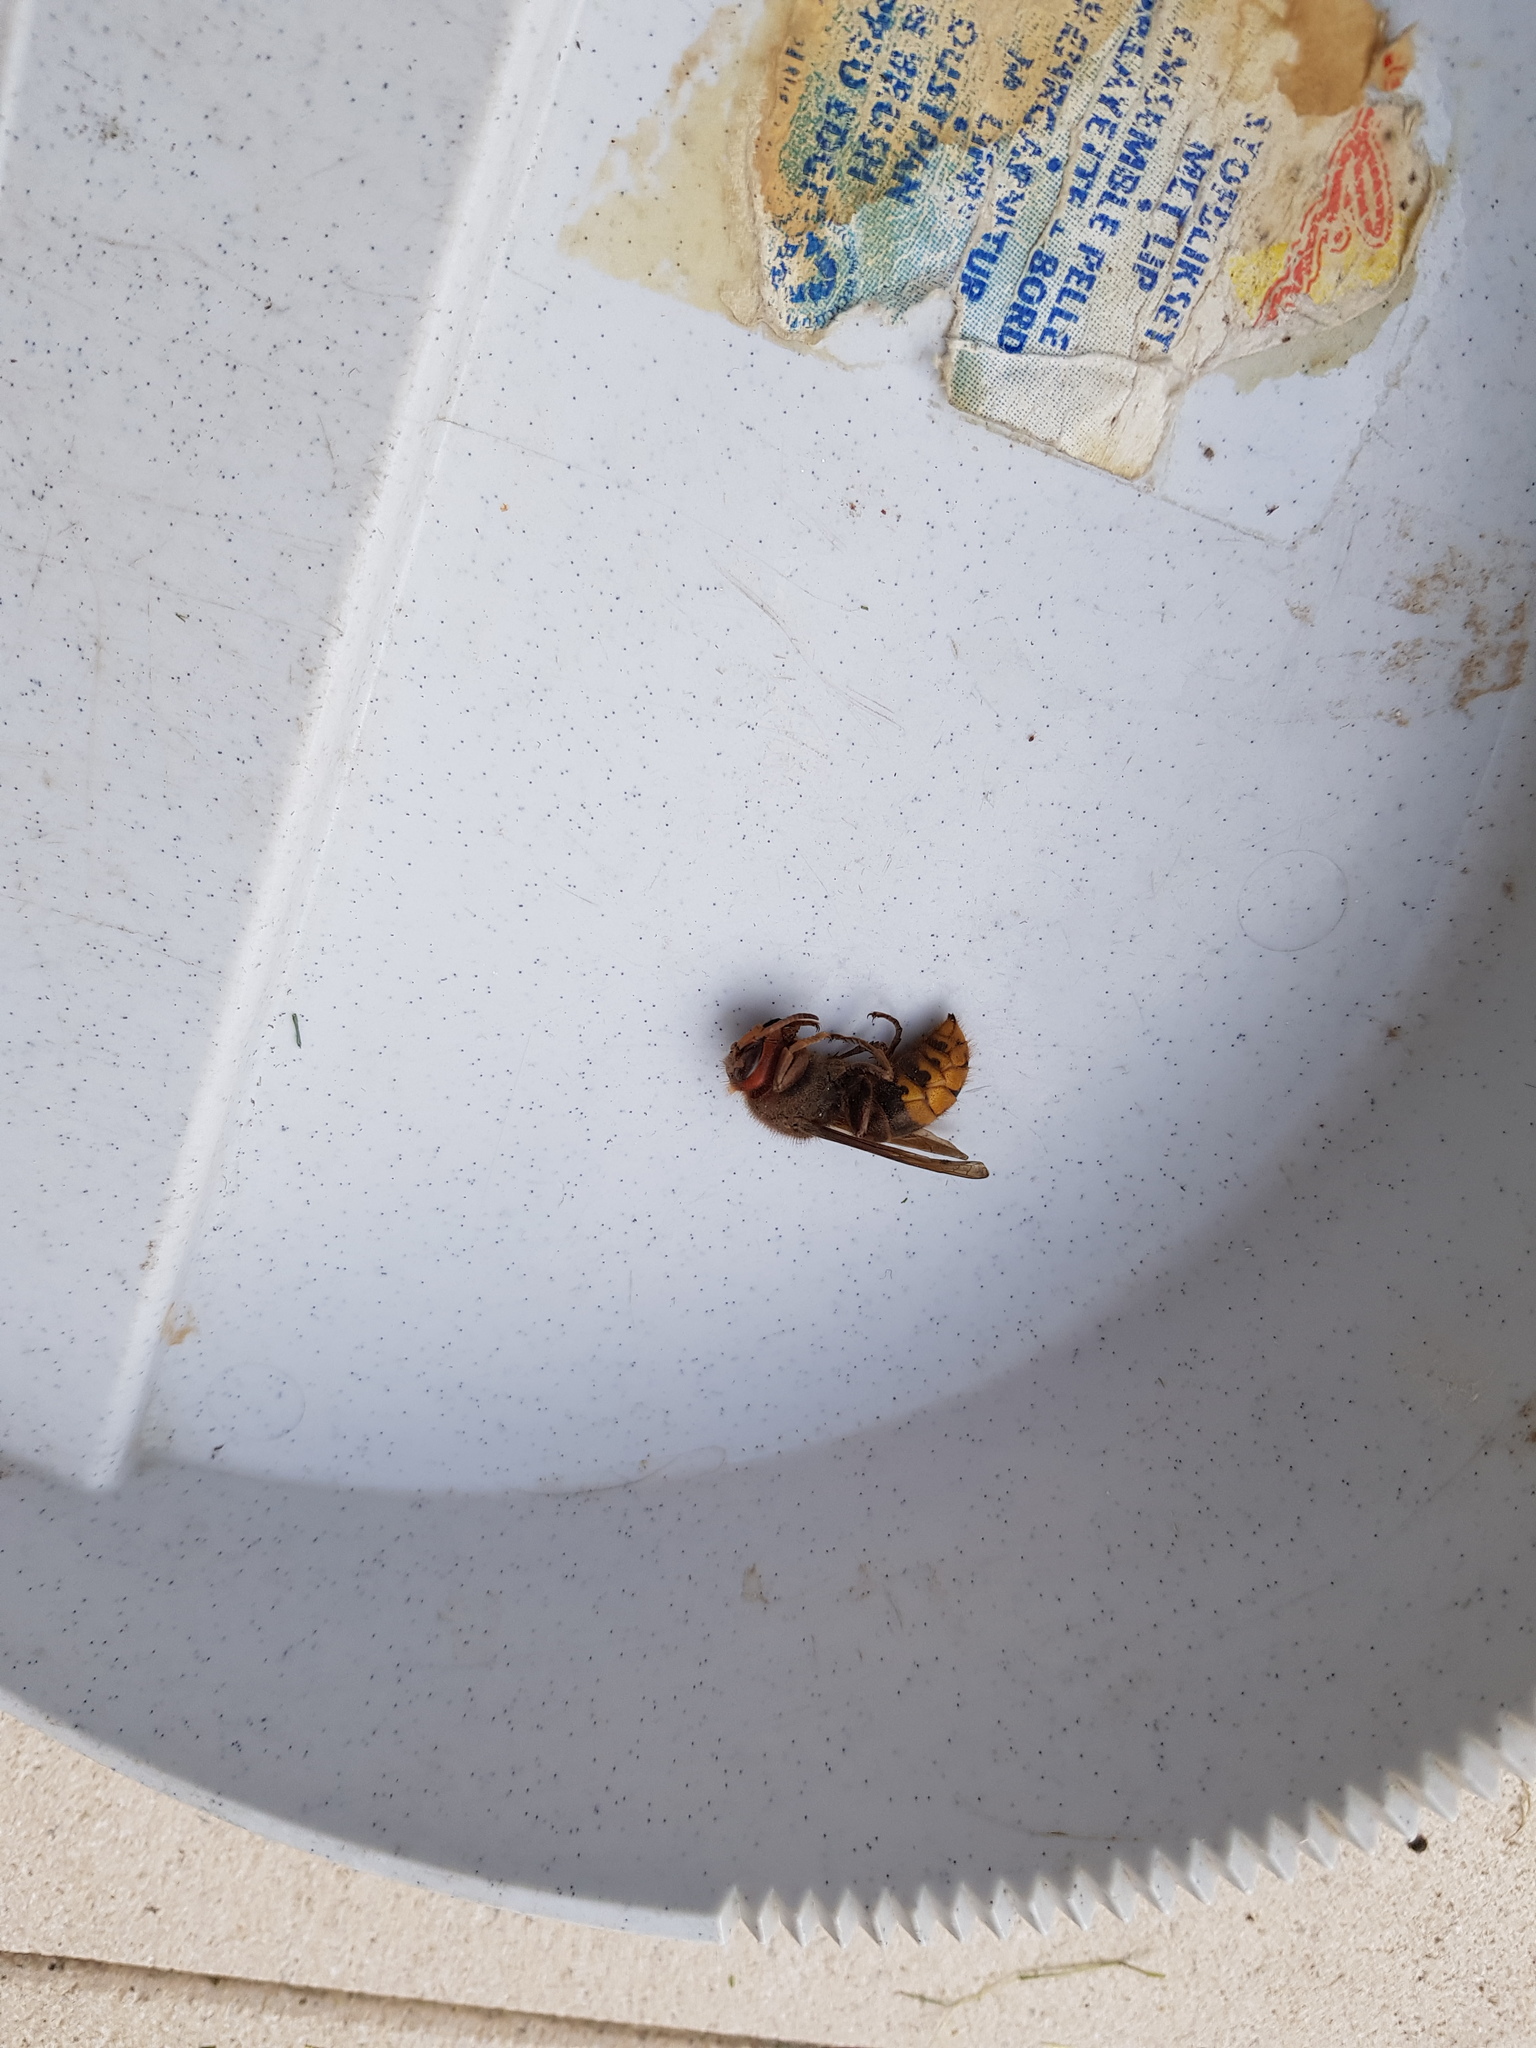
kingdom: Animalia
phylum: Arthropoda
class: Insecta
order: Hymenoptera
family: Vespidae
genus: Vespa
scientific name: Vespa crabro
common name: Hornet
